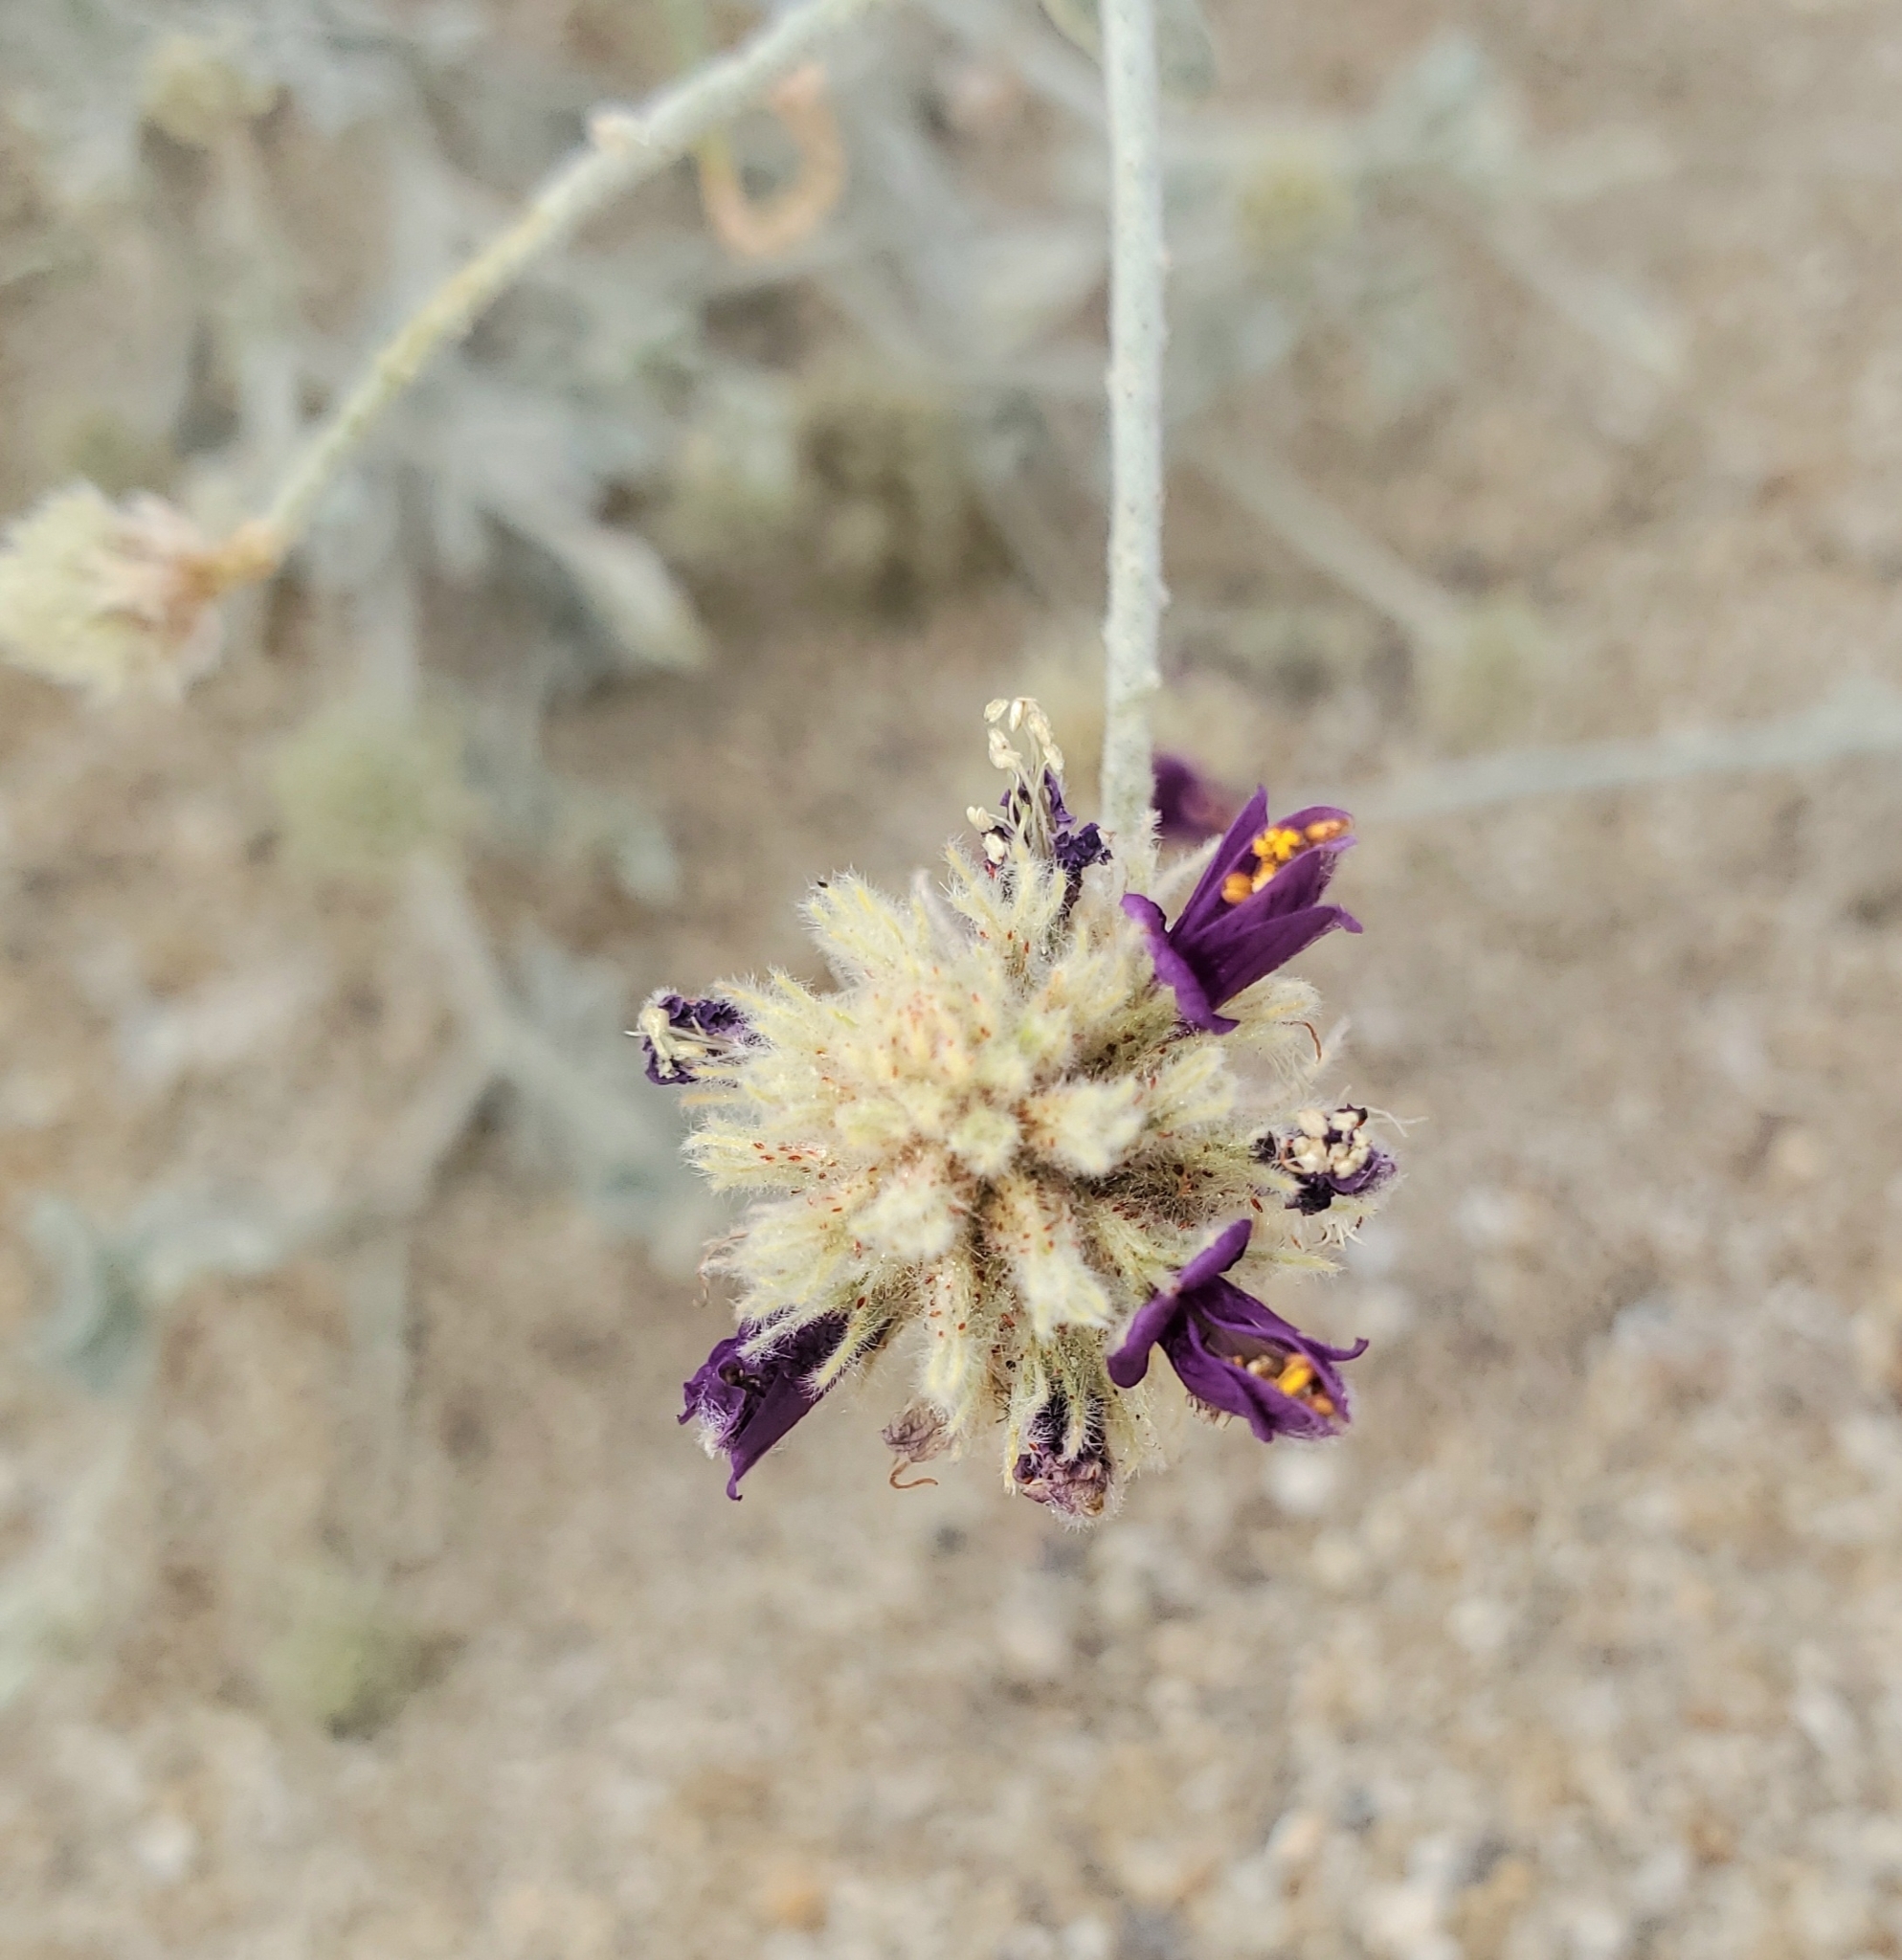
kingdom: Plantae
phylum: Tracheophyta
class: Magnoliopsida
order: Fabales
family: Fabaceae
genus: Psorothamnus
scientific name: Psorothamnus emoryi
